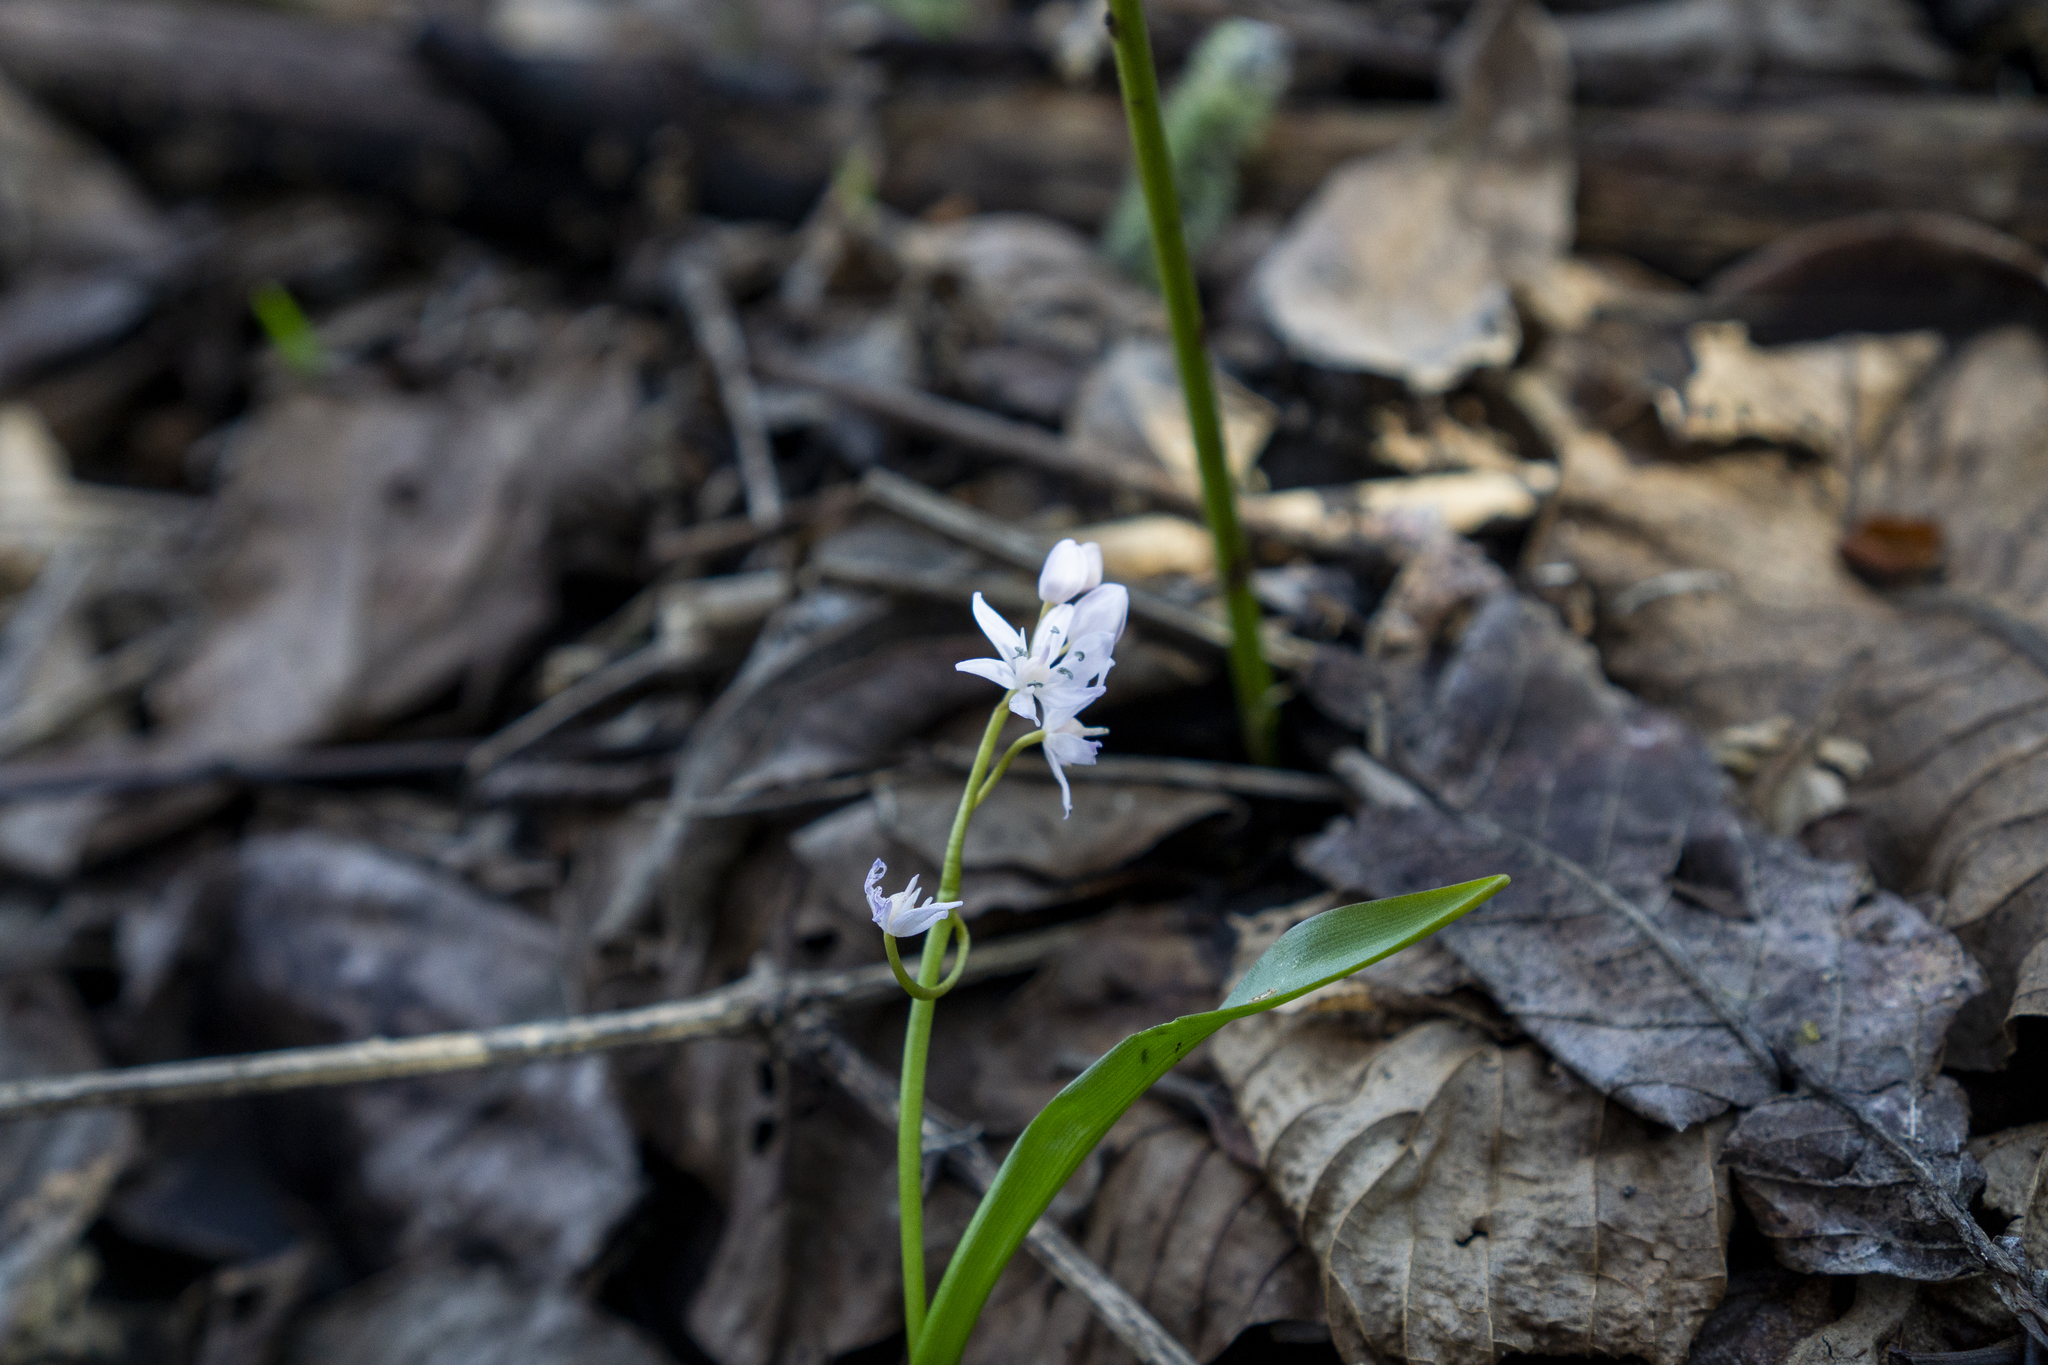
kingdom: Plantae
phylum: Tracheophyta
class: Liliopsida
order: Asparagales
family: Asparagaceae
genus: Scilla
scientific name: Scilla bifolia
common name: Alpine squill
